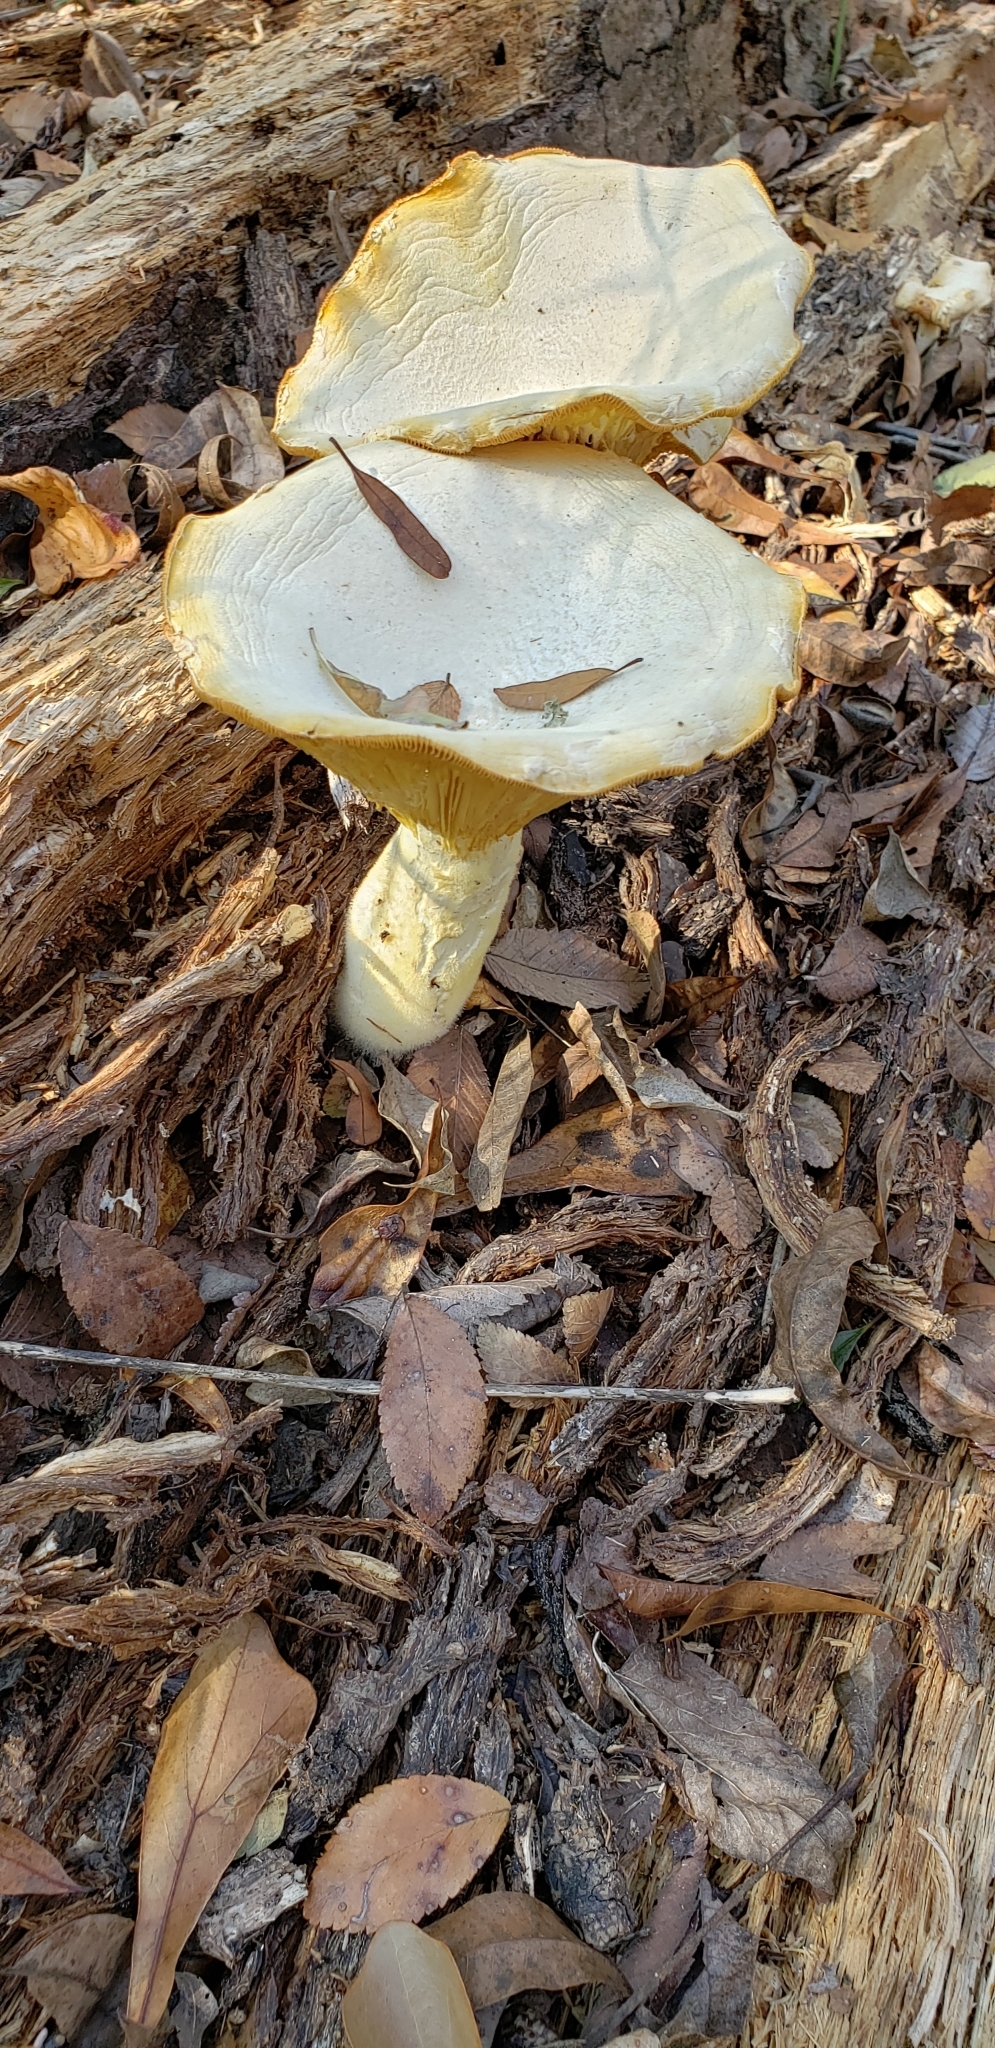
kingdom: Fungi
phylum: Basidiomycota
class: Agaricomycetes
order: Polyporales
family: Polyporaceae
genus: Lentinus
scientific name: Lentinus levis
